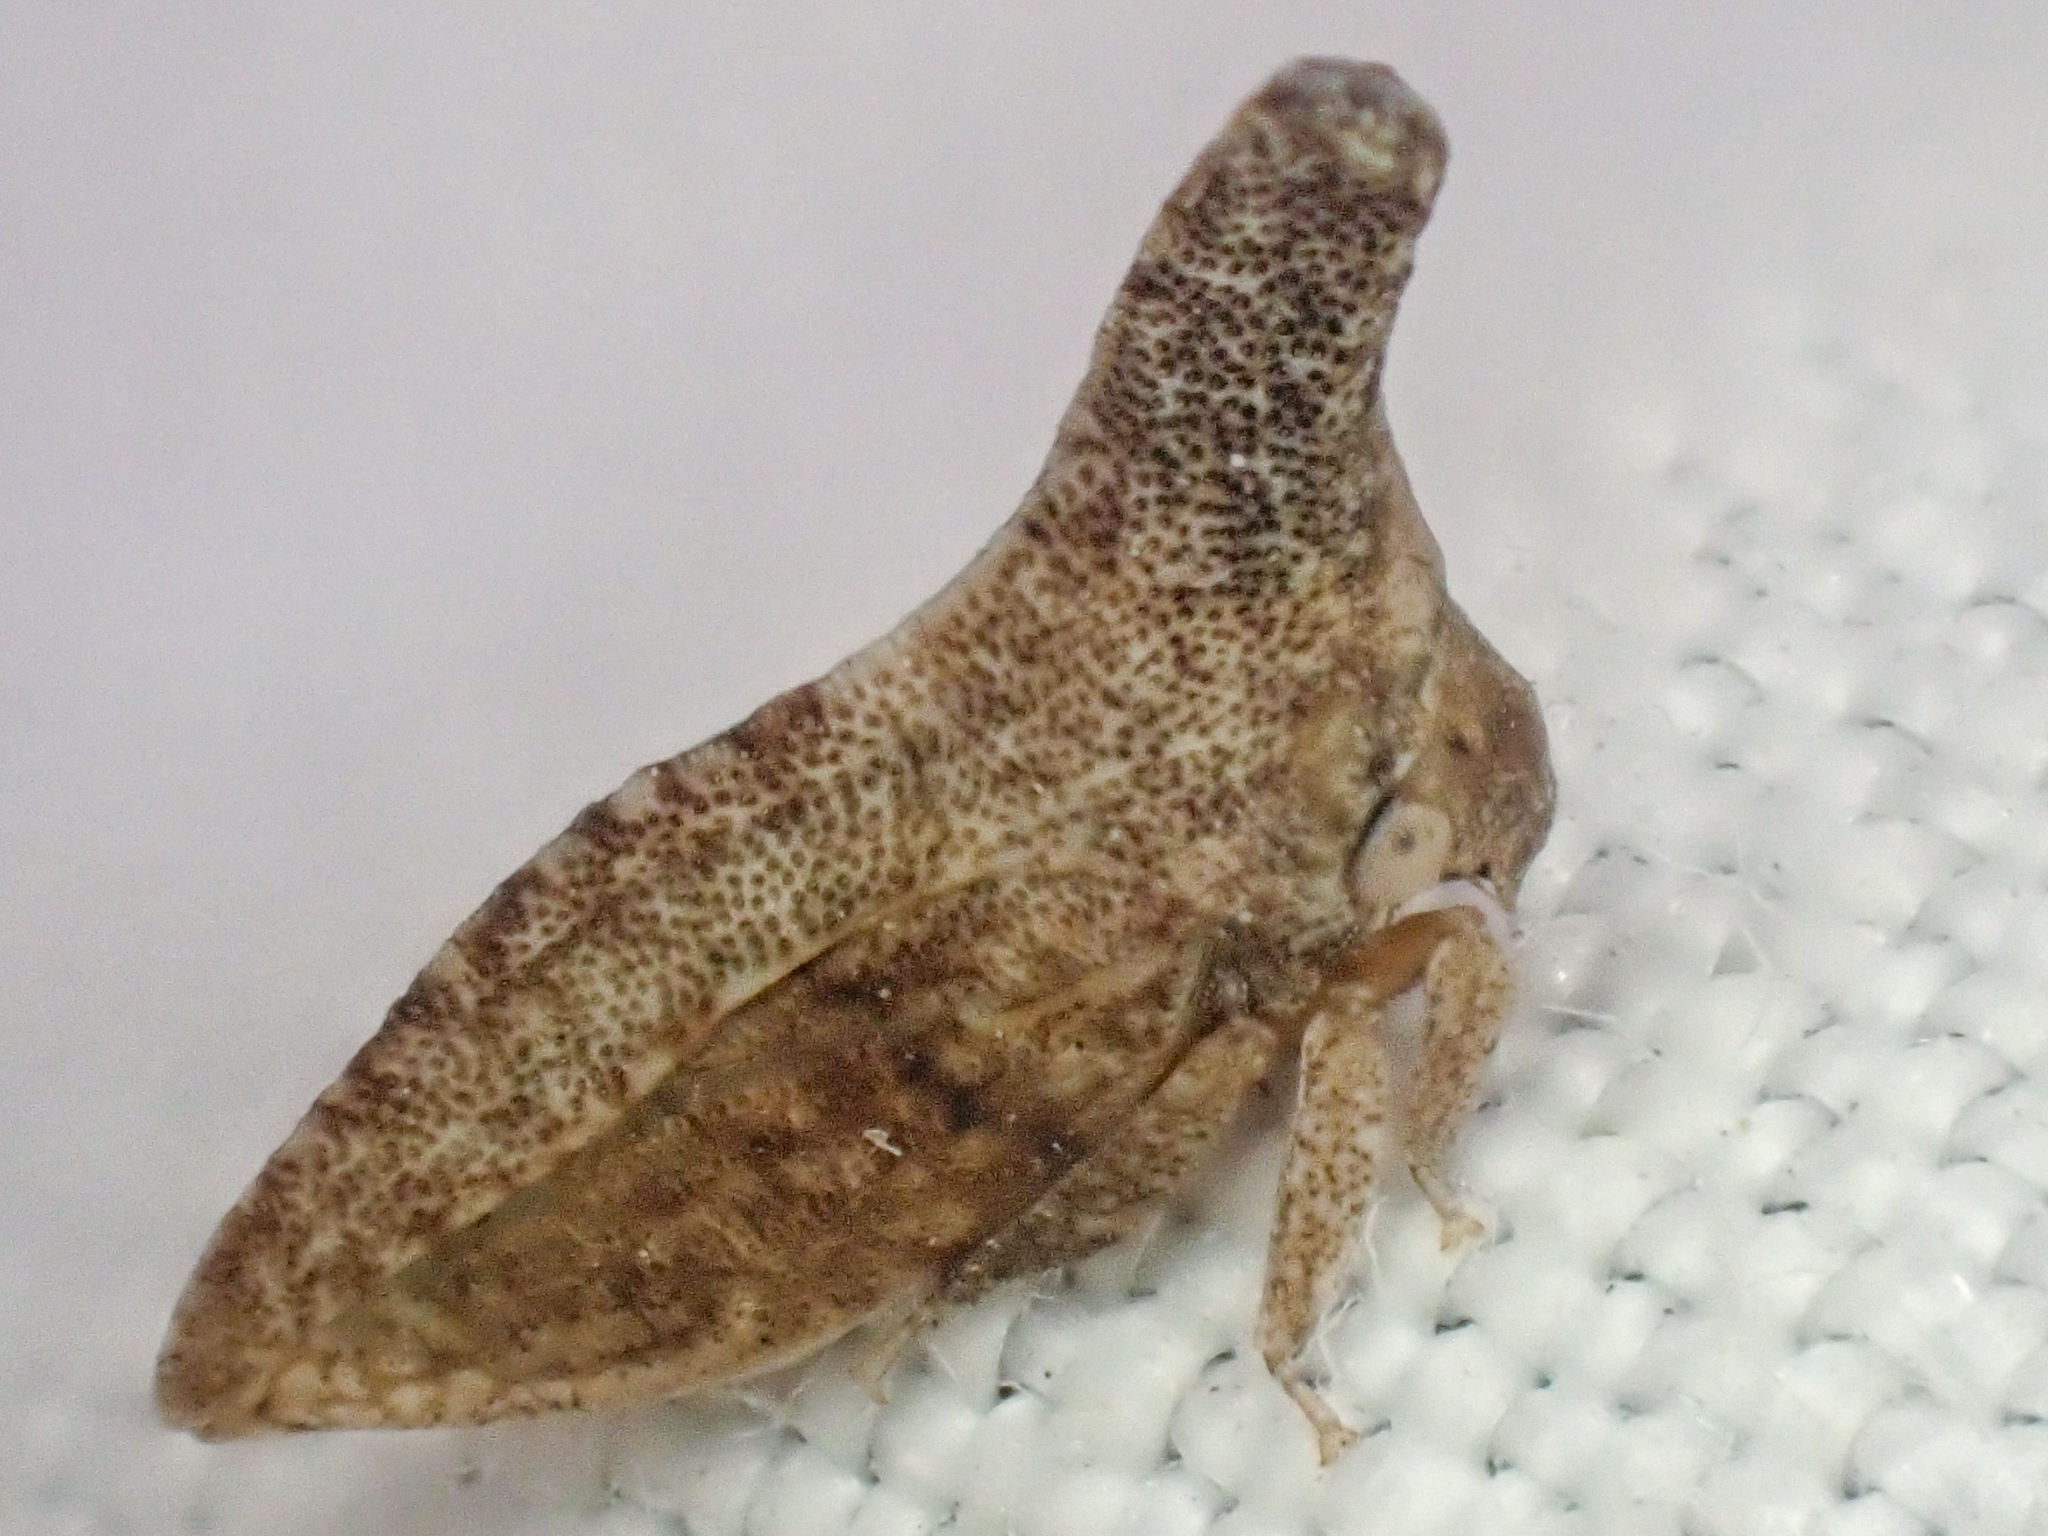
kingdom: Animalia
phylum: Arthropoda
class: Insecta
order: Hemiptera
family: Membracidae
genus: Philya
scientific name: Philya californensis
